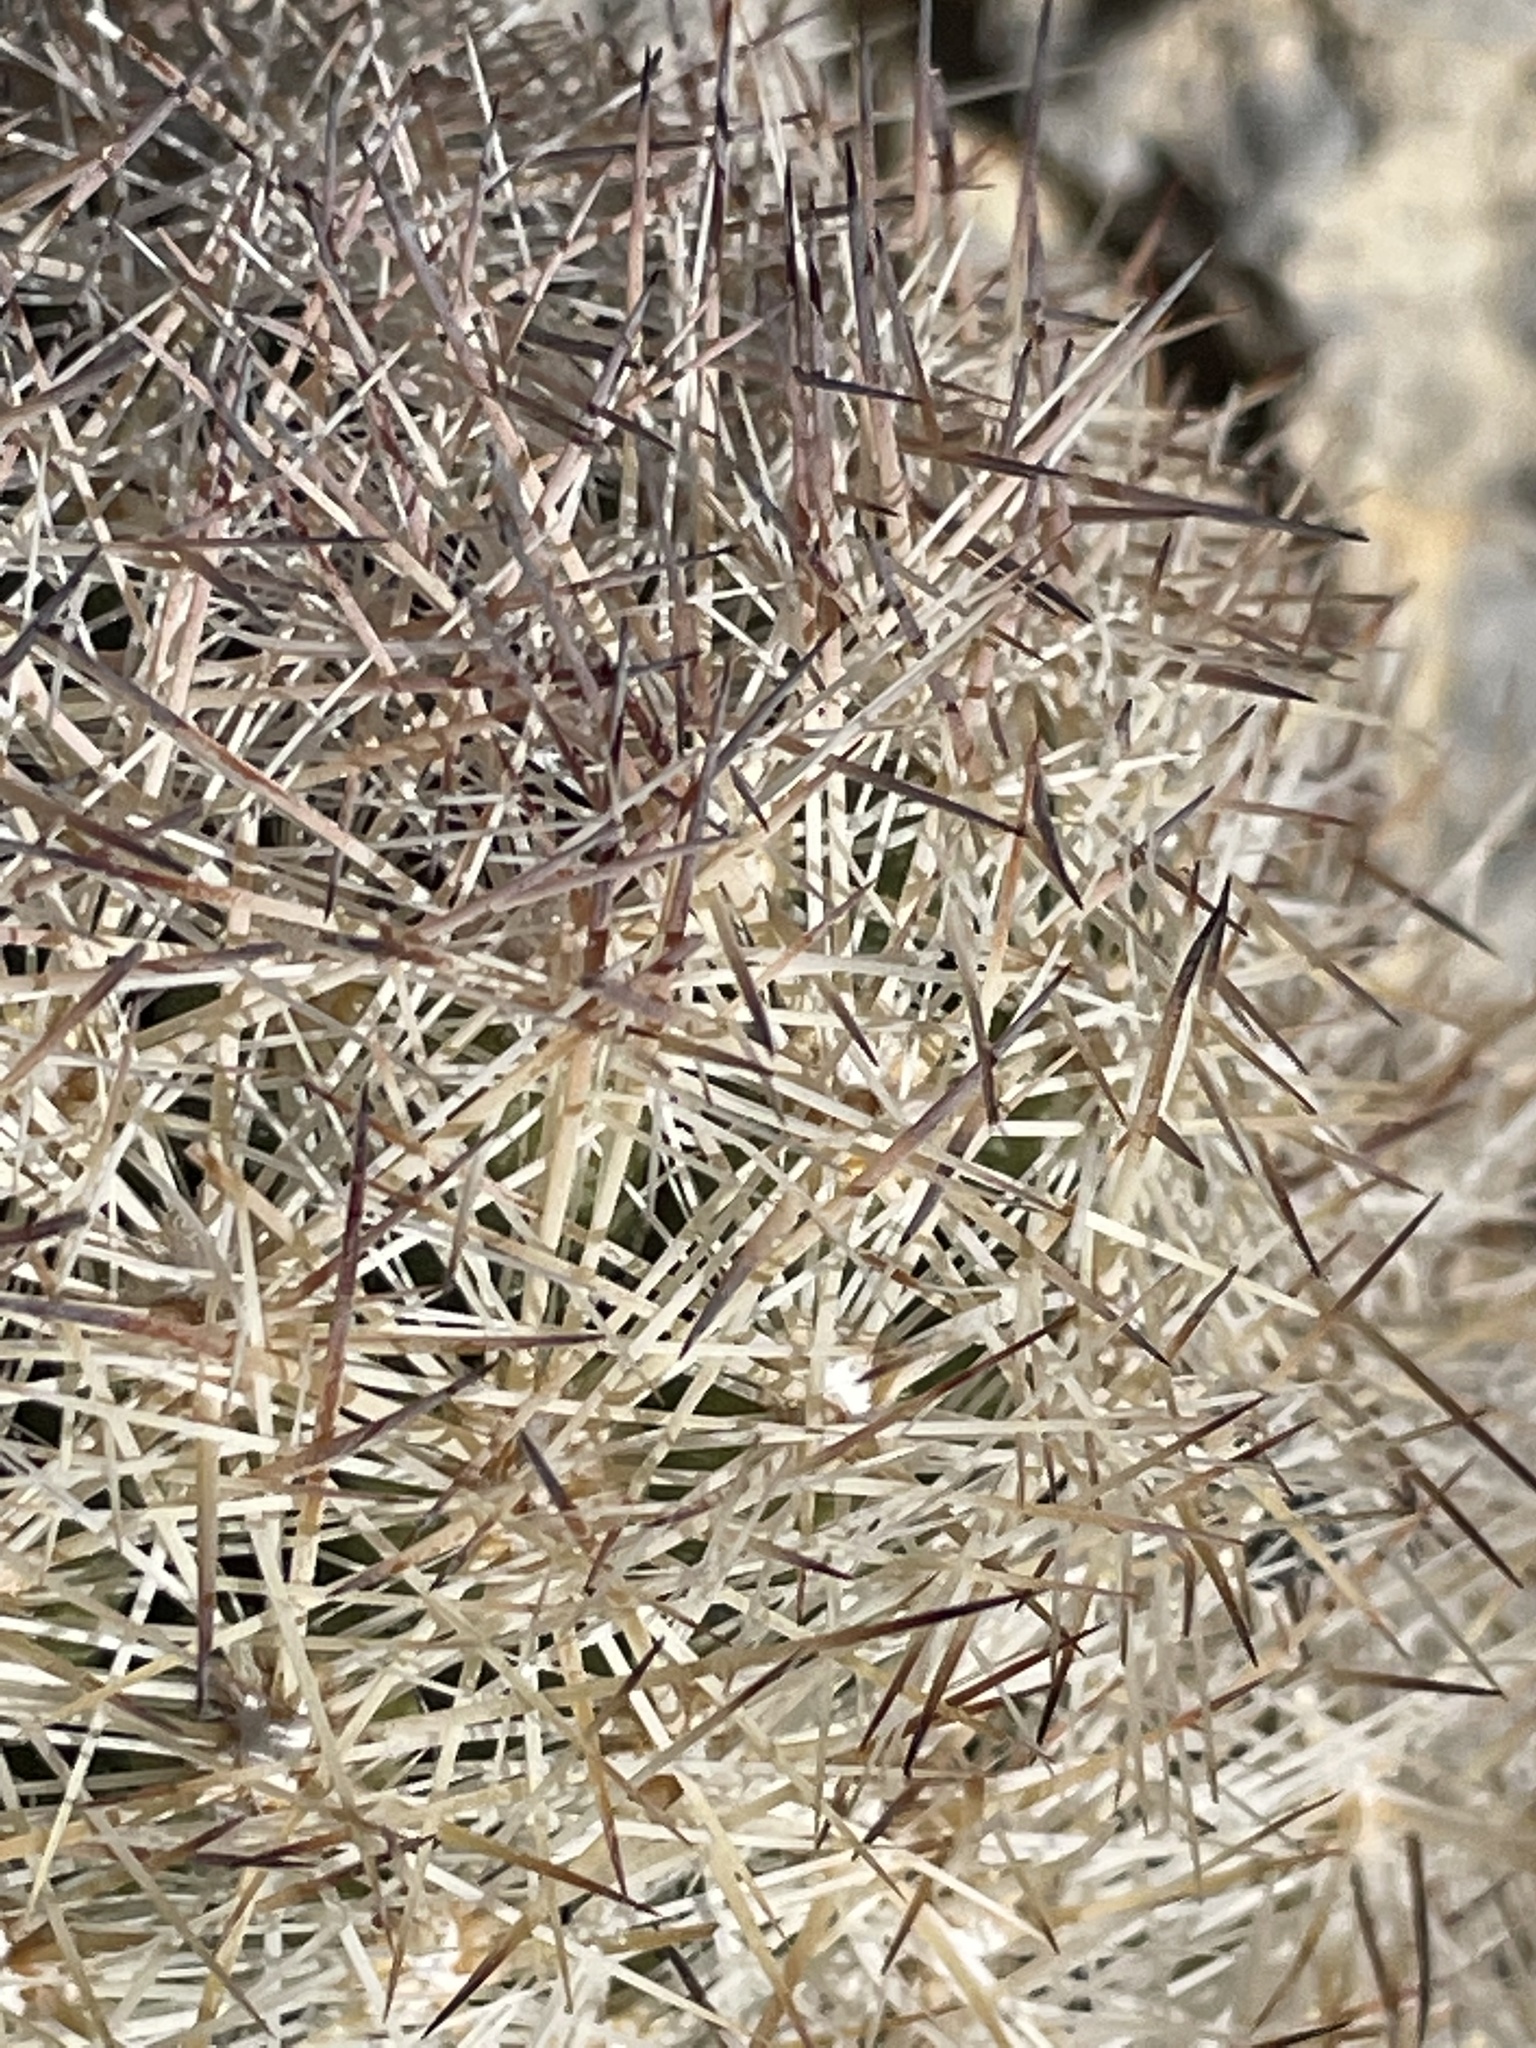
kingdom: Plantae
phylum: Tracheophyta
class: Magnoliopsida
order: Caryophyllales
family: Cactaceae
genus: Pelecyphora
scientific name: Pelecyphora dasyacantha
